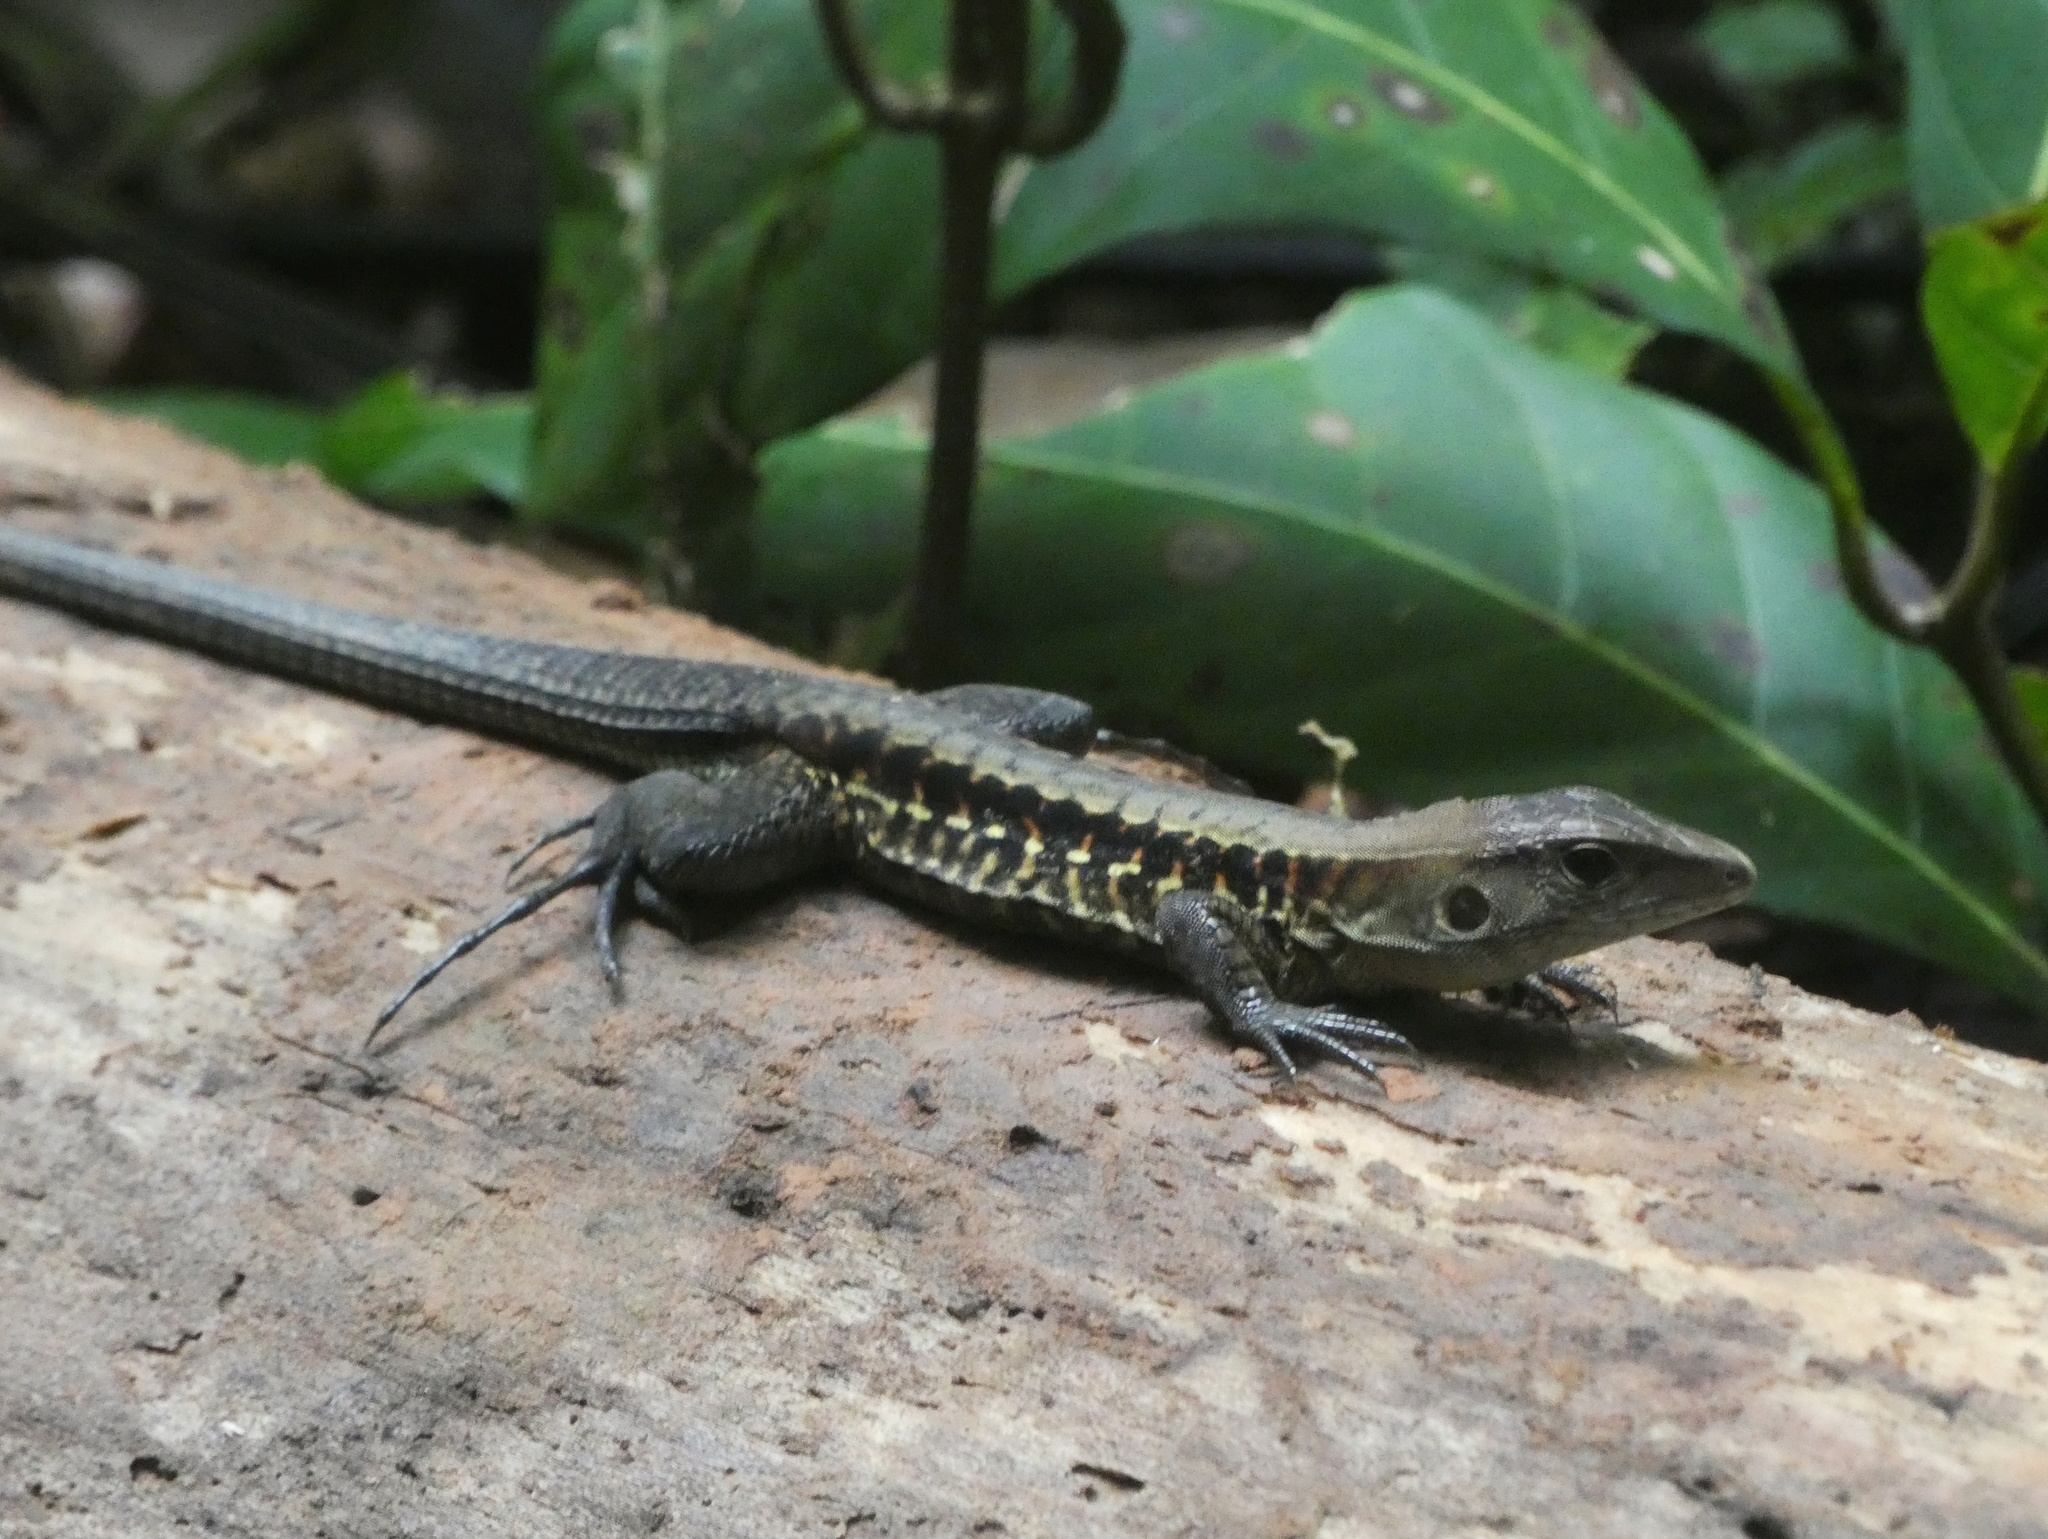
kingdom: Animalia
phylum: Chordata
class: Squamata
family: Teiidae
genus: Holcosus
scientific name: Holcosus leptophrys
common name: Delicate ameiva
